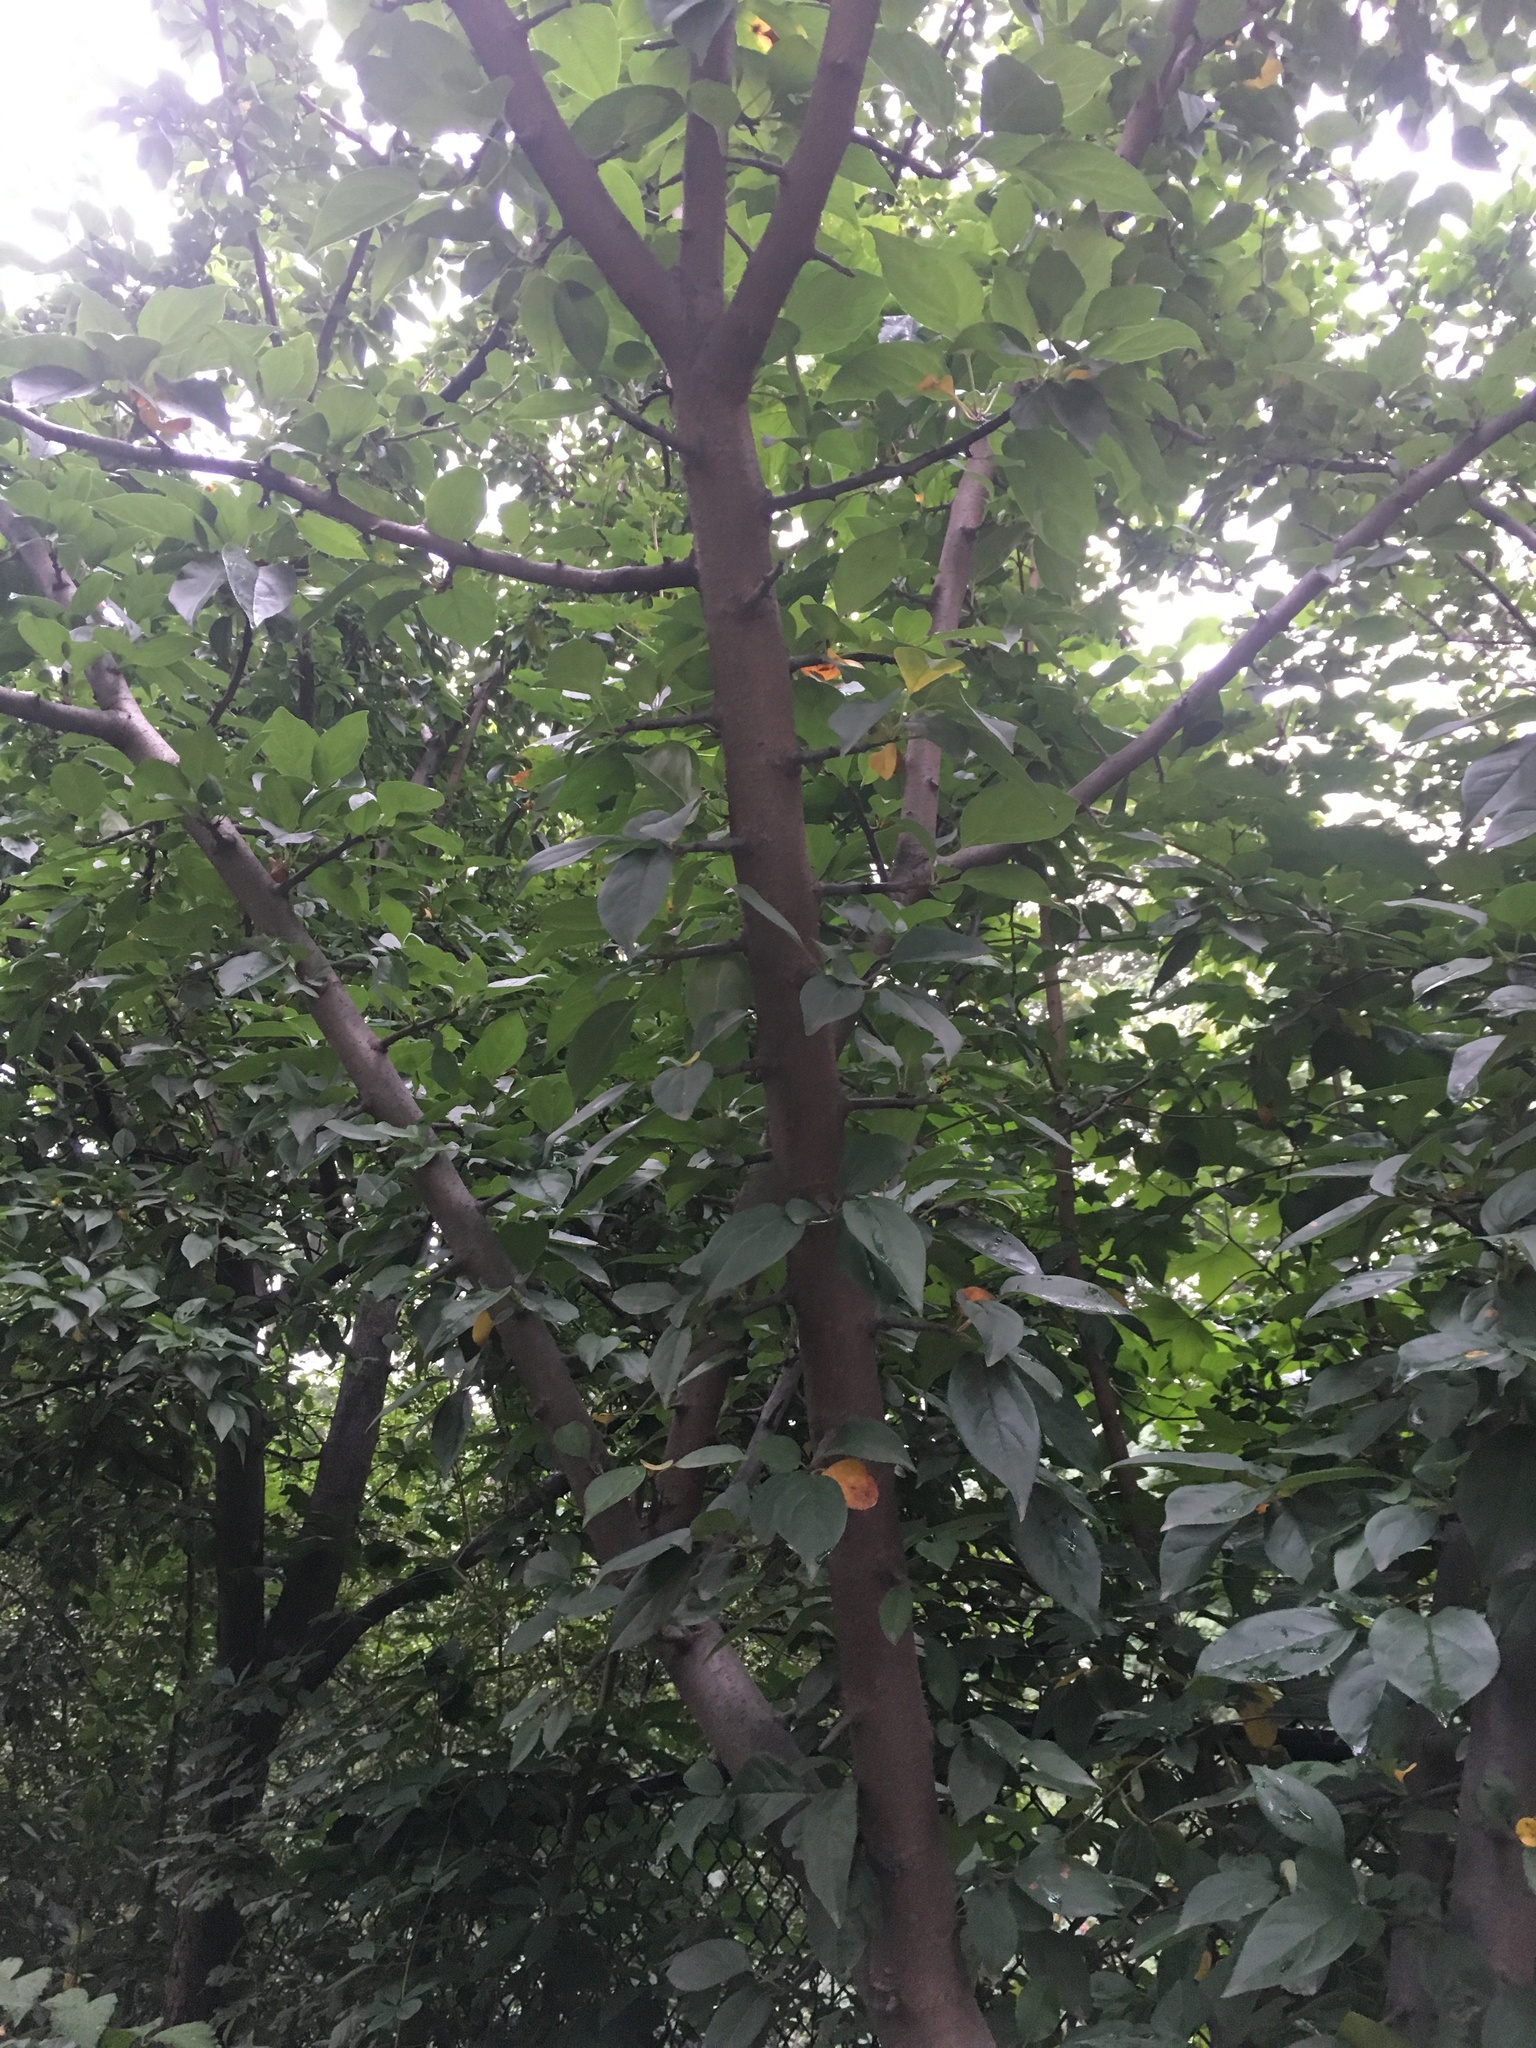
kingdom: Plantae
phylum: Tracheophyta
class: Magnoliopsida
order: Rosales
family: Rosaceae
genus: Malus
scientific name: Malus hupehensis
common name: Chinese crab apple
